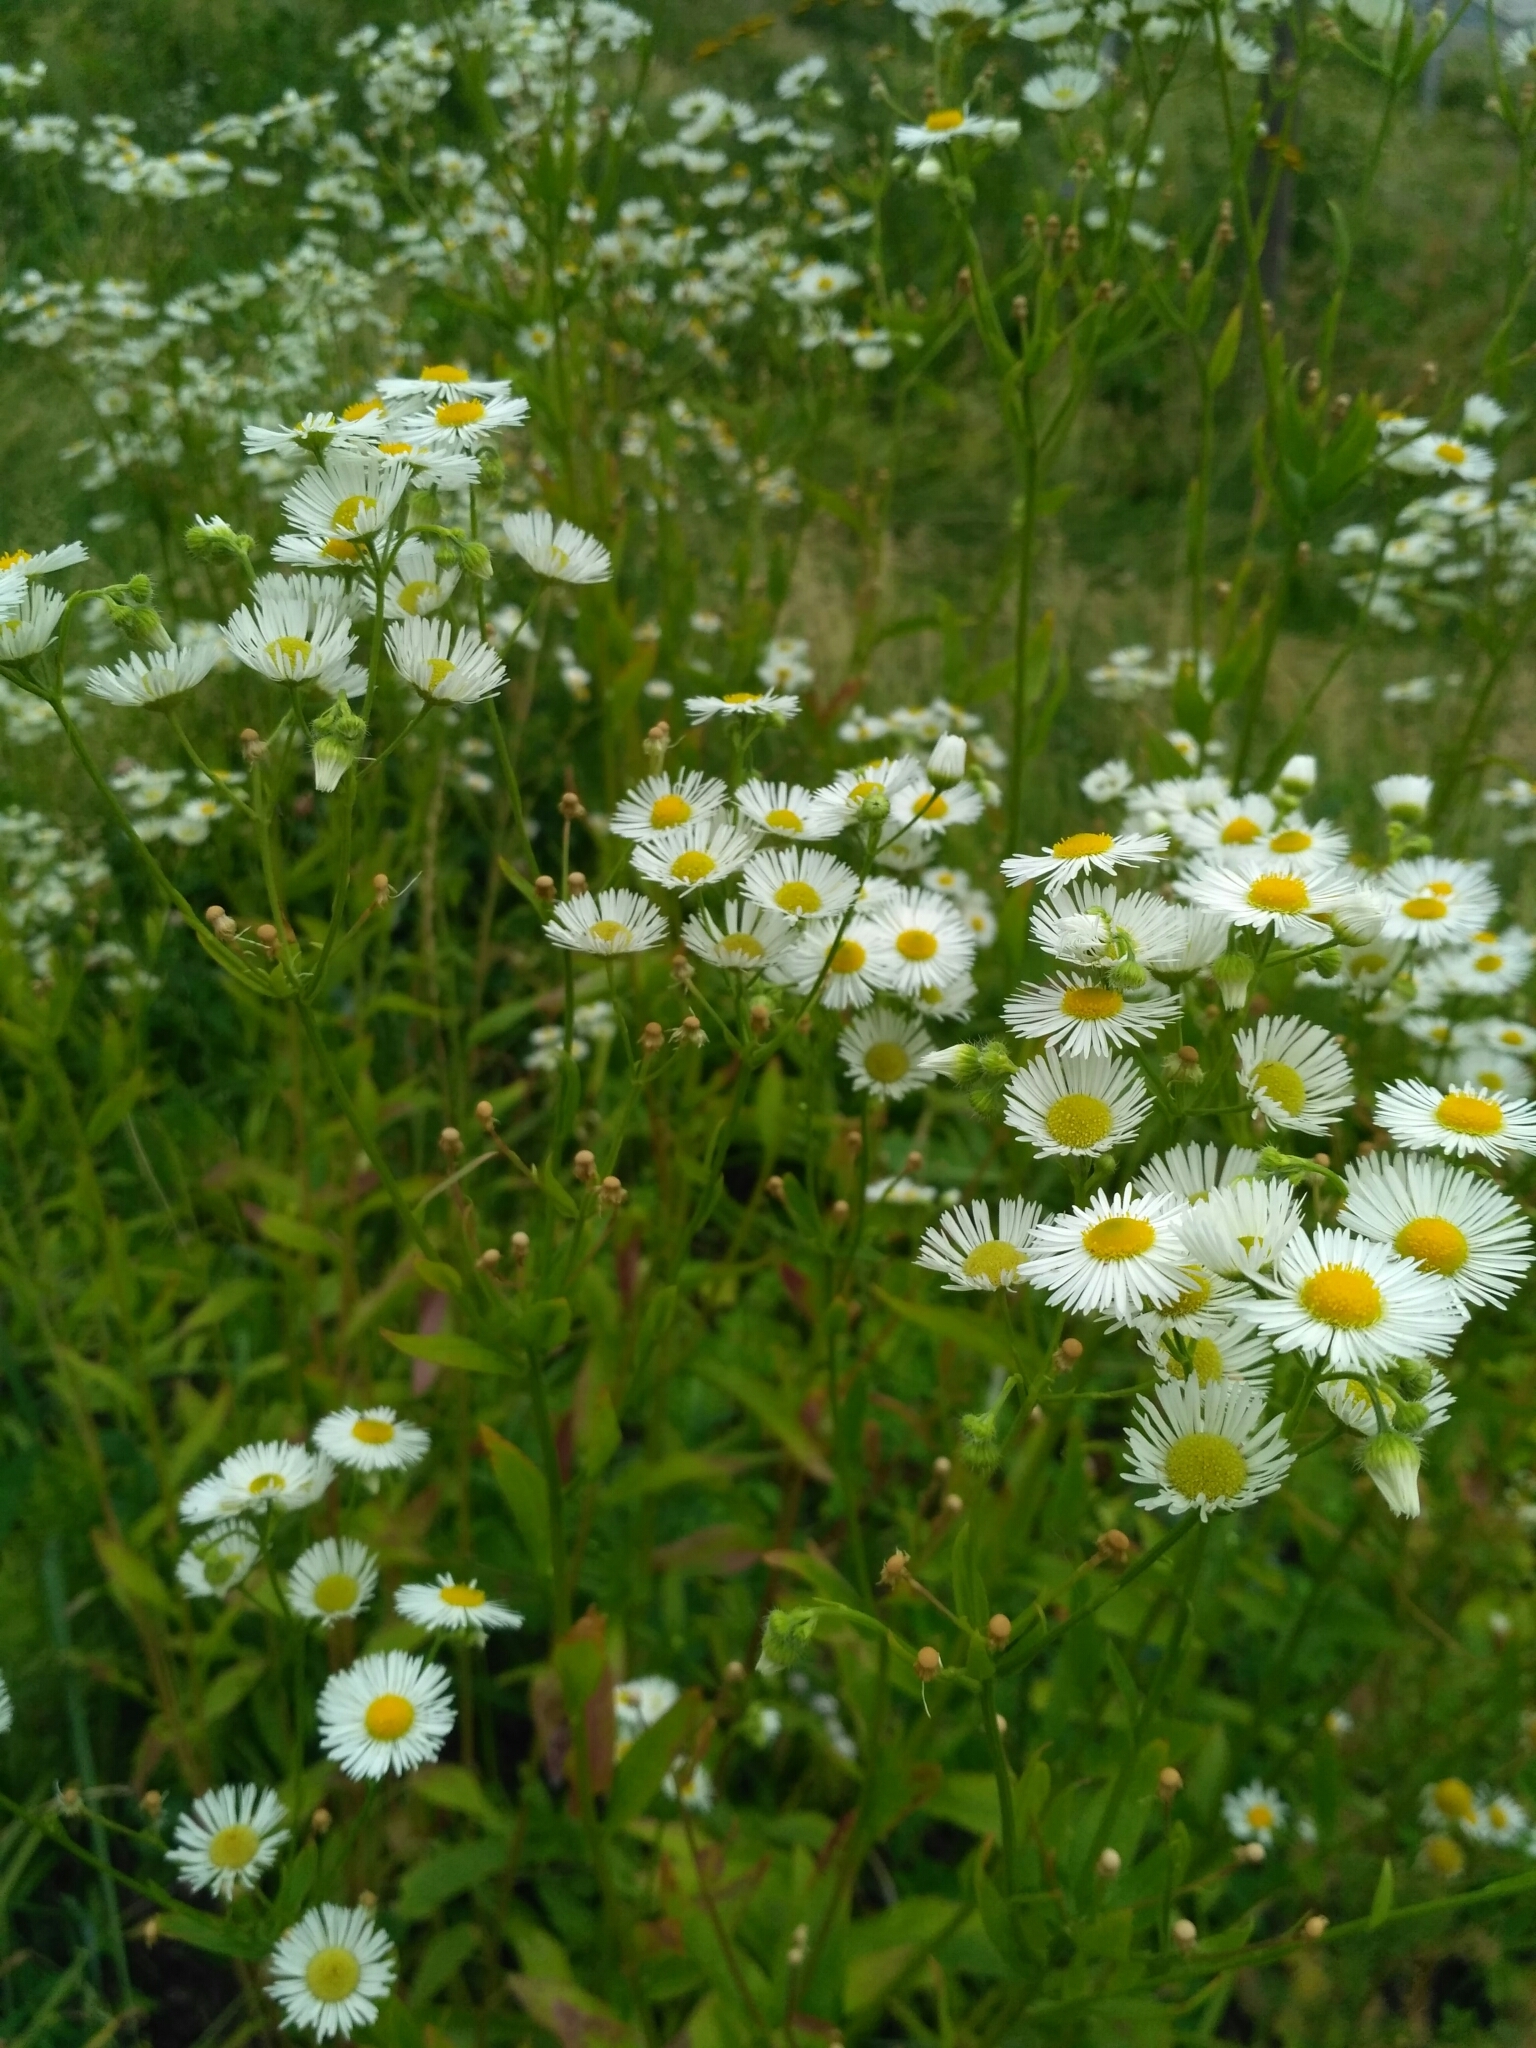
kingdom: Plantae
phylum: Tracheophyta
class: Magnoliopsida
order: Asterales
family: Asteraceae
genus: Erigeron
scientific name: Erigeron annuus
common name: Tall fleabane
